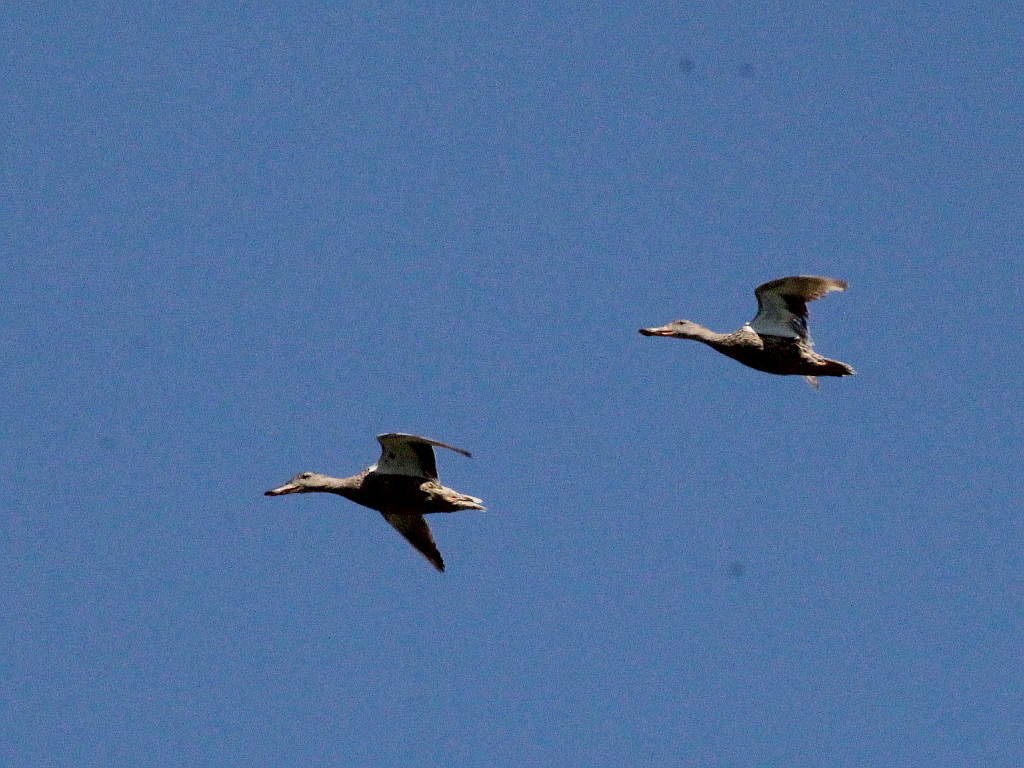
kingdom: Animalia
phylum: Chordata
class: Aves
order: Anseriformes
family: Anatidae
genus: Spatula
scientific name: Spatula clypeata
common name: Northern shoveler
